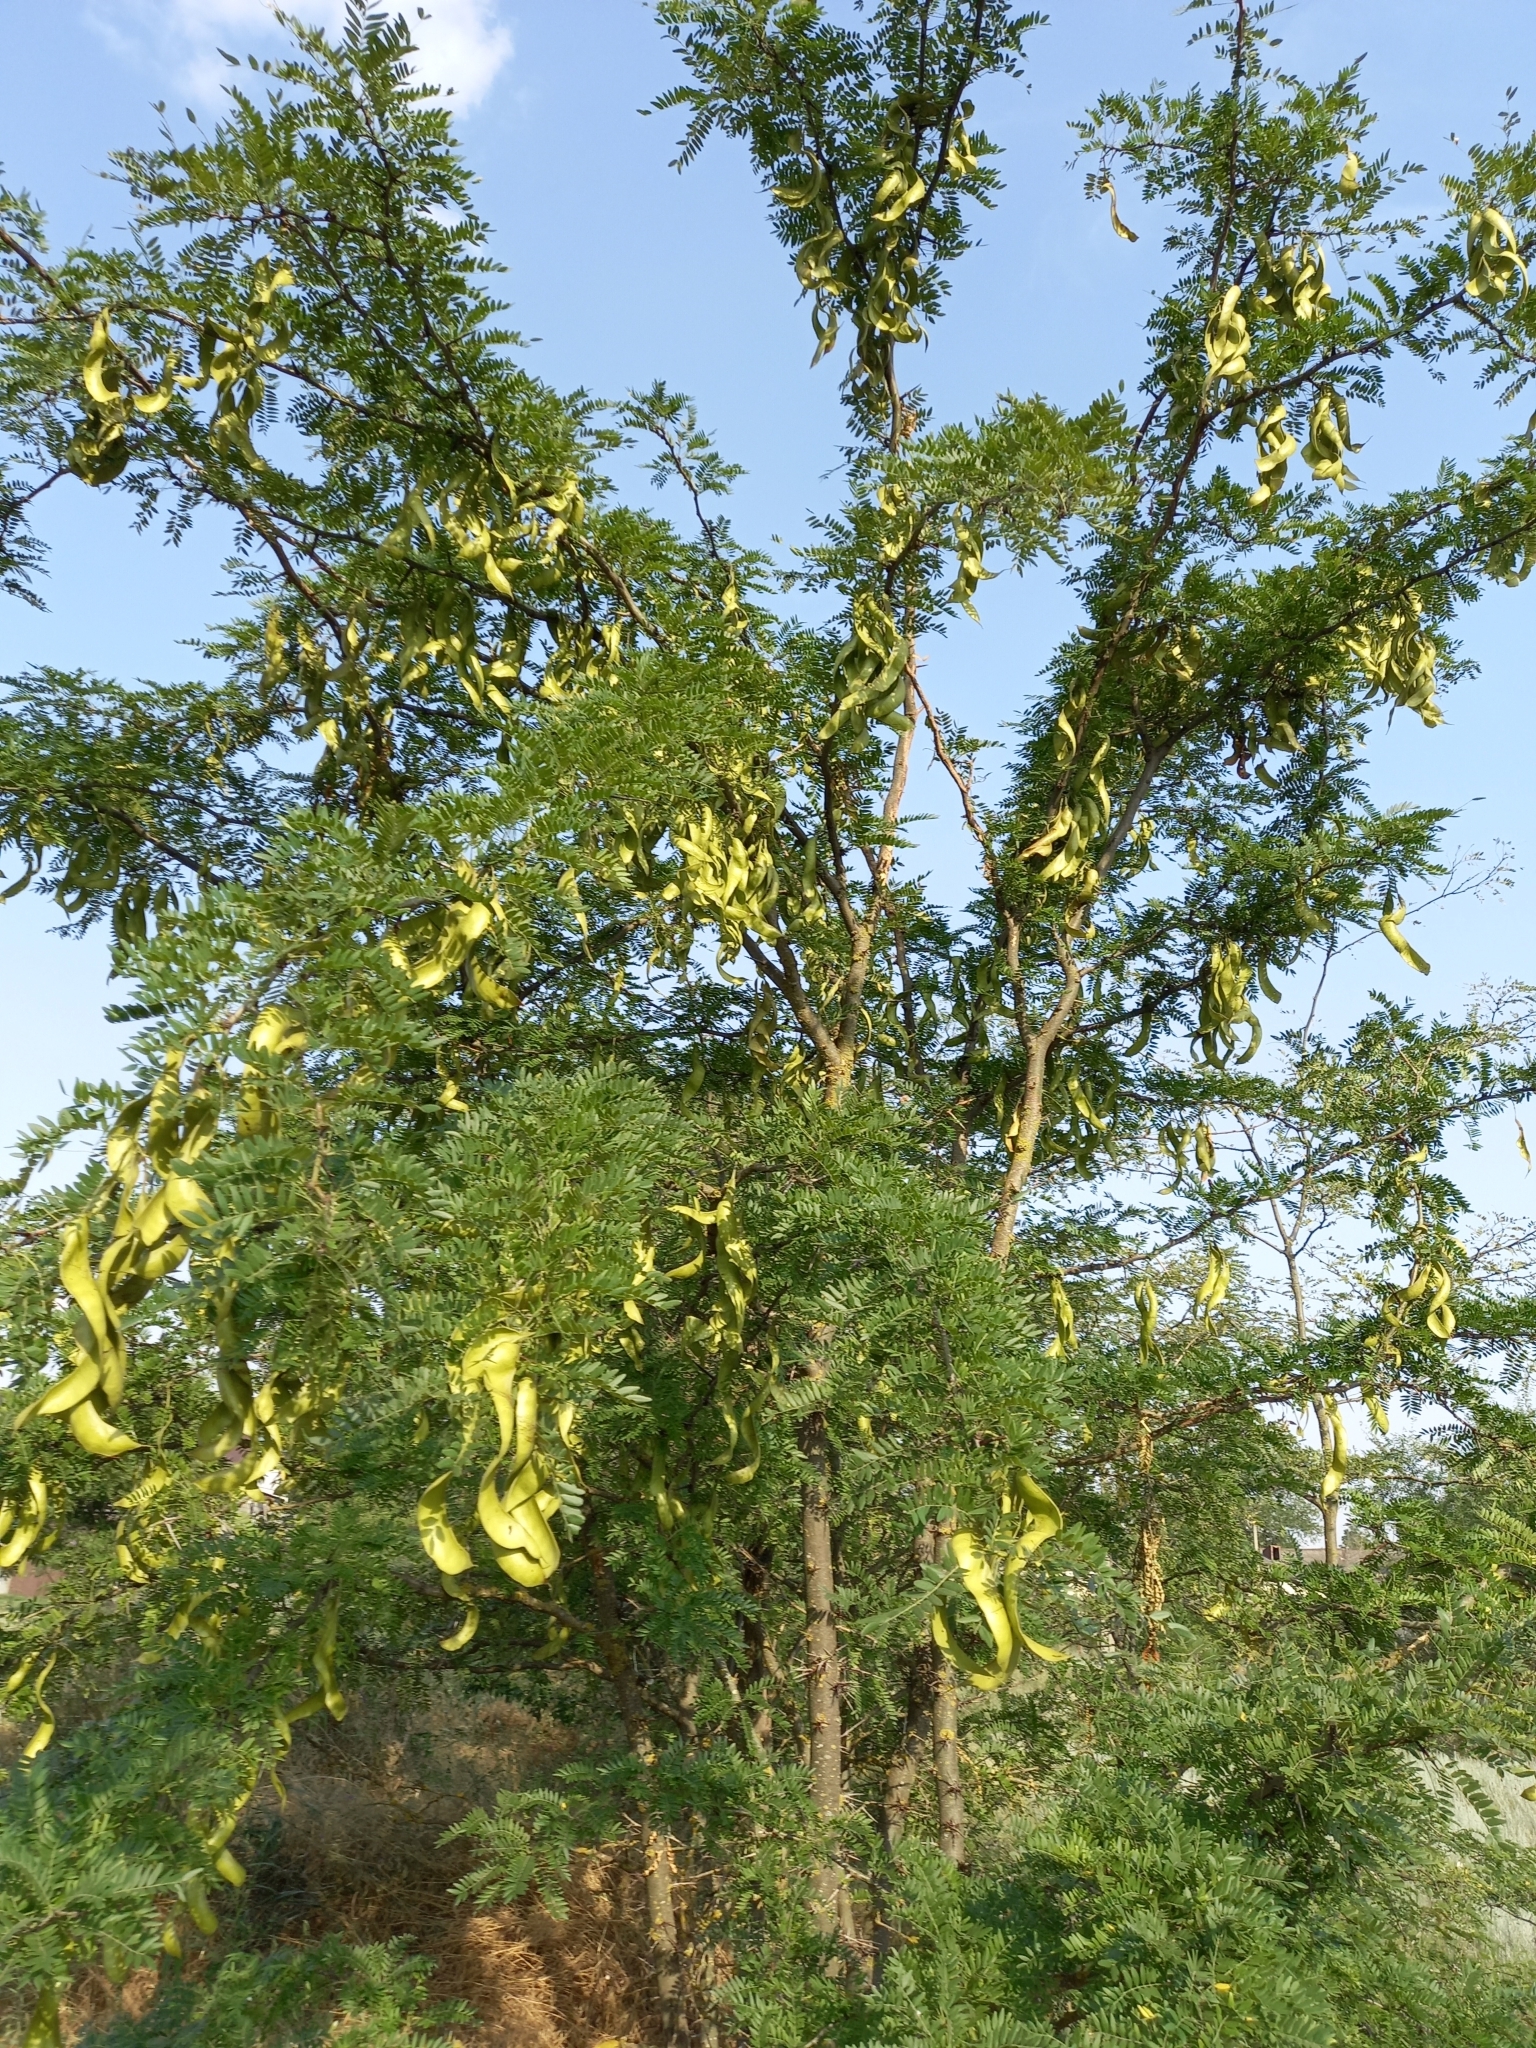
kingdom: Plantae
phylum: Tracheophyta
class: Magnoliopsida
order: Fabales
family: Fabaceae
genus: Gleditsia
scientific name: Gleditsia triacanthos
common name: Common honeylocust
